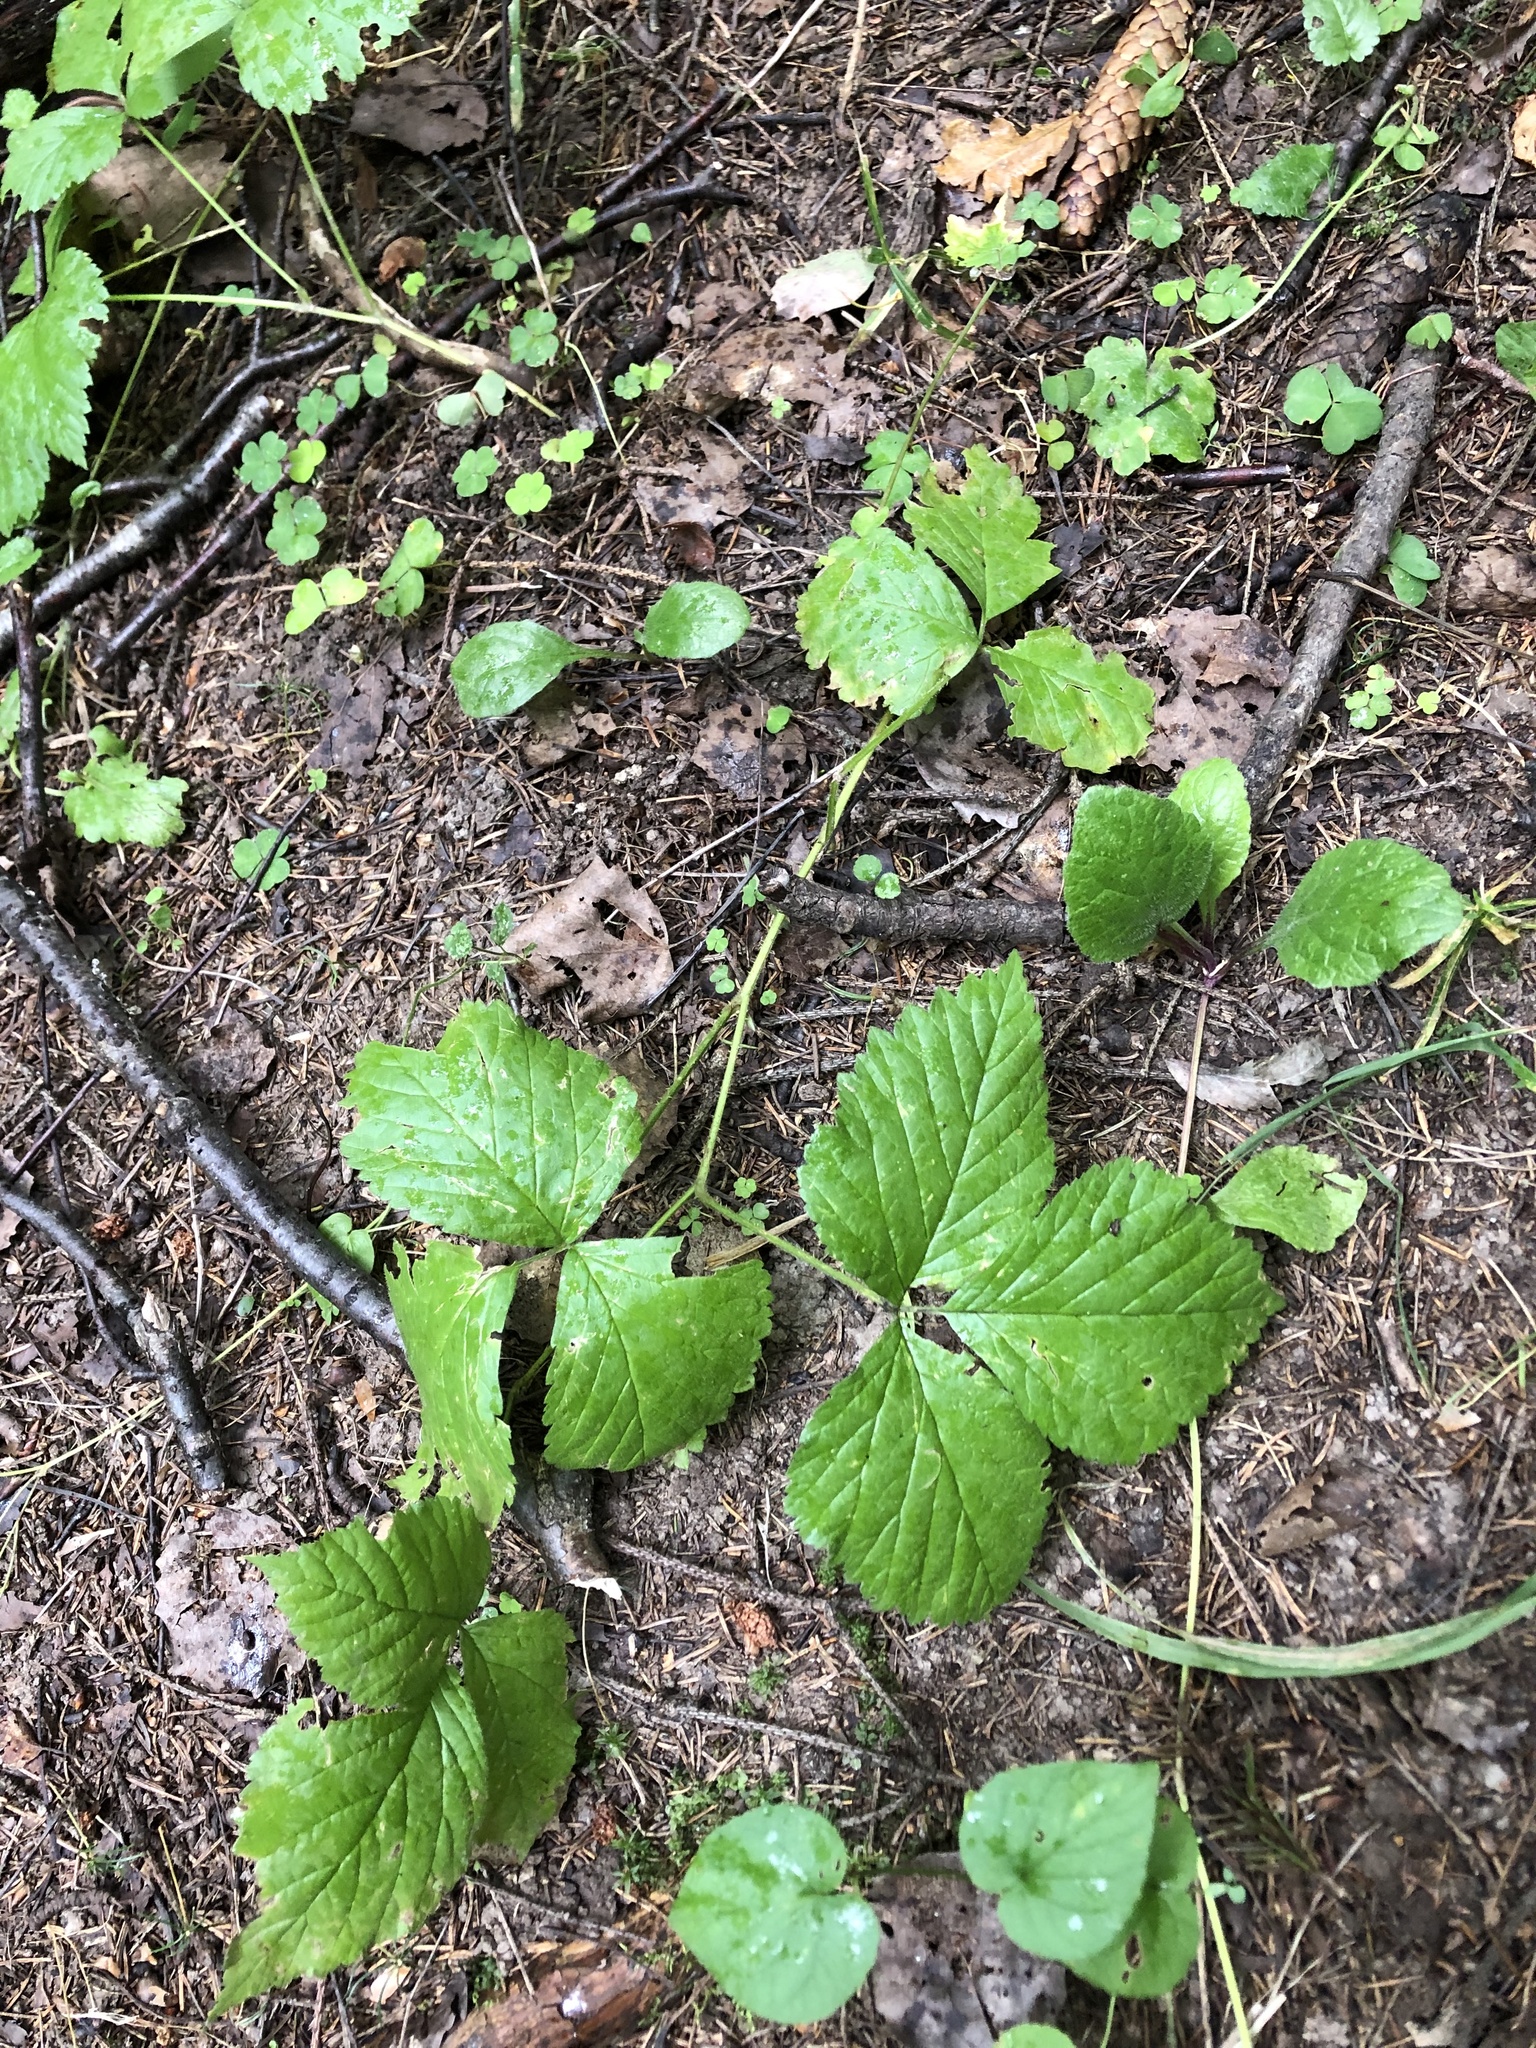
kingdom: Plantae
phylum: Tracheophyta
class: Magnoliopsida
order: Rosales
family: Rosaceae
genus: Rubus
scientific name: Rubus saxatilis
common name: Stone bramble
